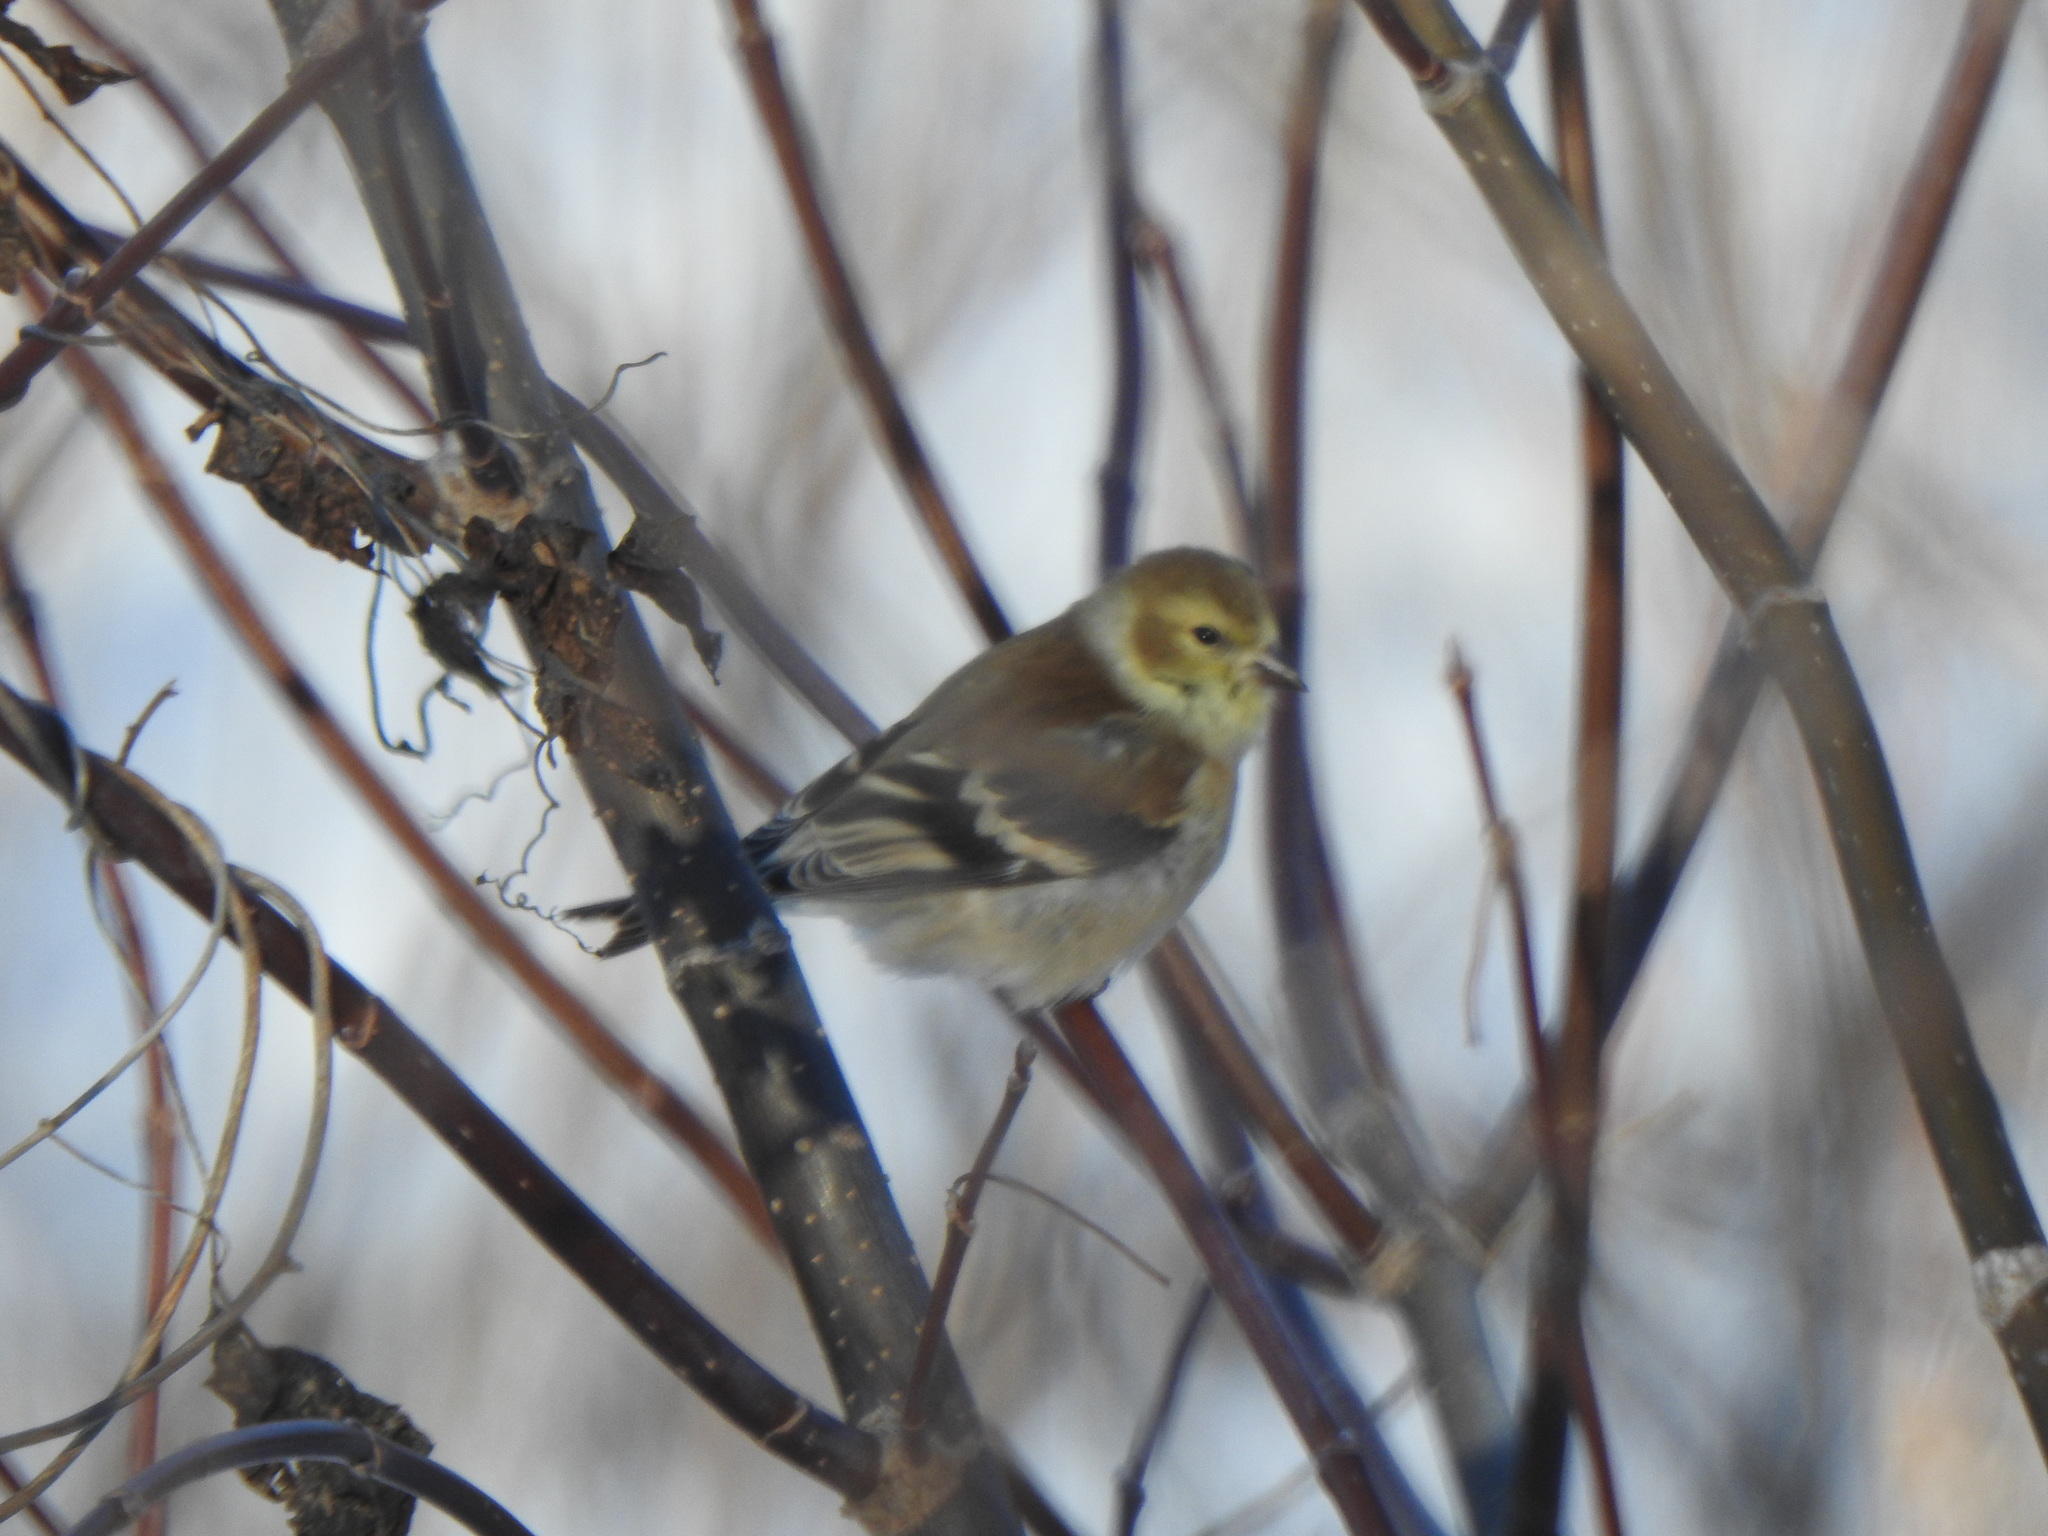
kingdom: Animalia
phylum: Chordata
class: Aves
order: Passeriformes
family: Fringillidae
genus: Spinus
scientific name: Spinus tristis
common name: American goldfinch
